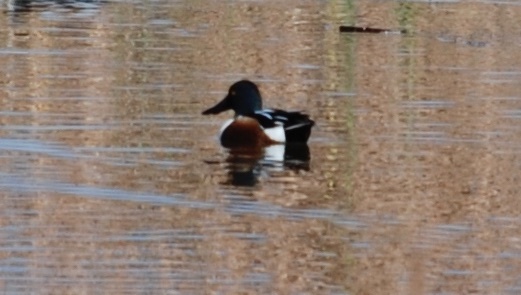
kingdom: Animalia
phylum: Chordata
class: Aves
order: Anseriformes
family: Anatidae
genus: Spatula
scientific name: Spatula clypeata
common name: Northern shoveler
